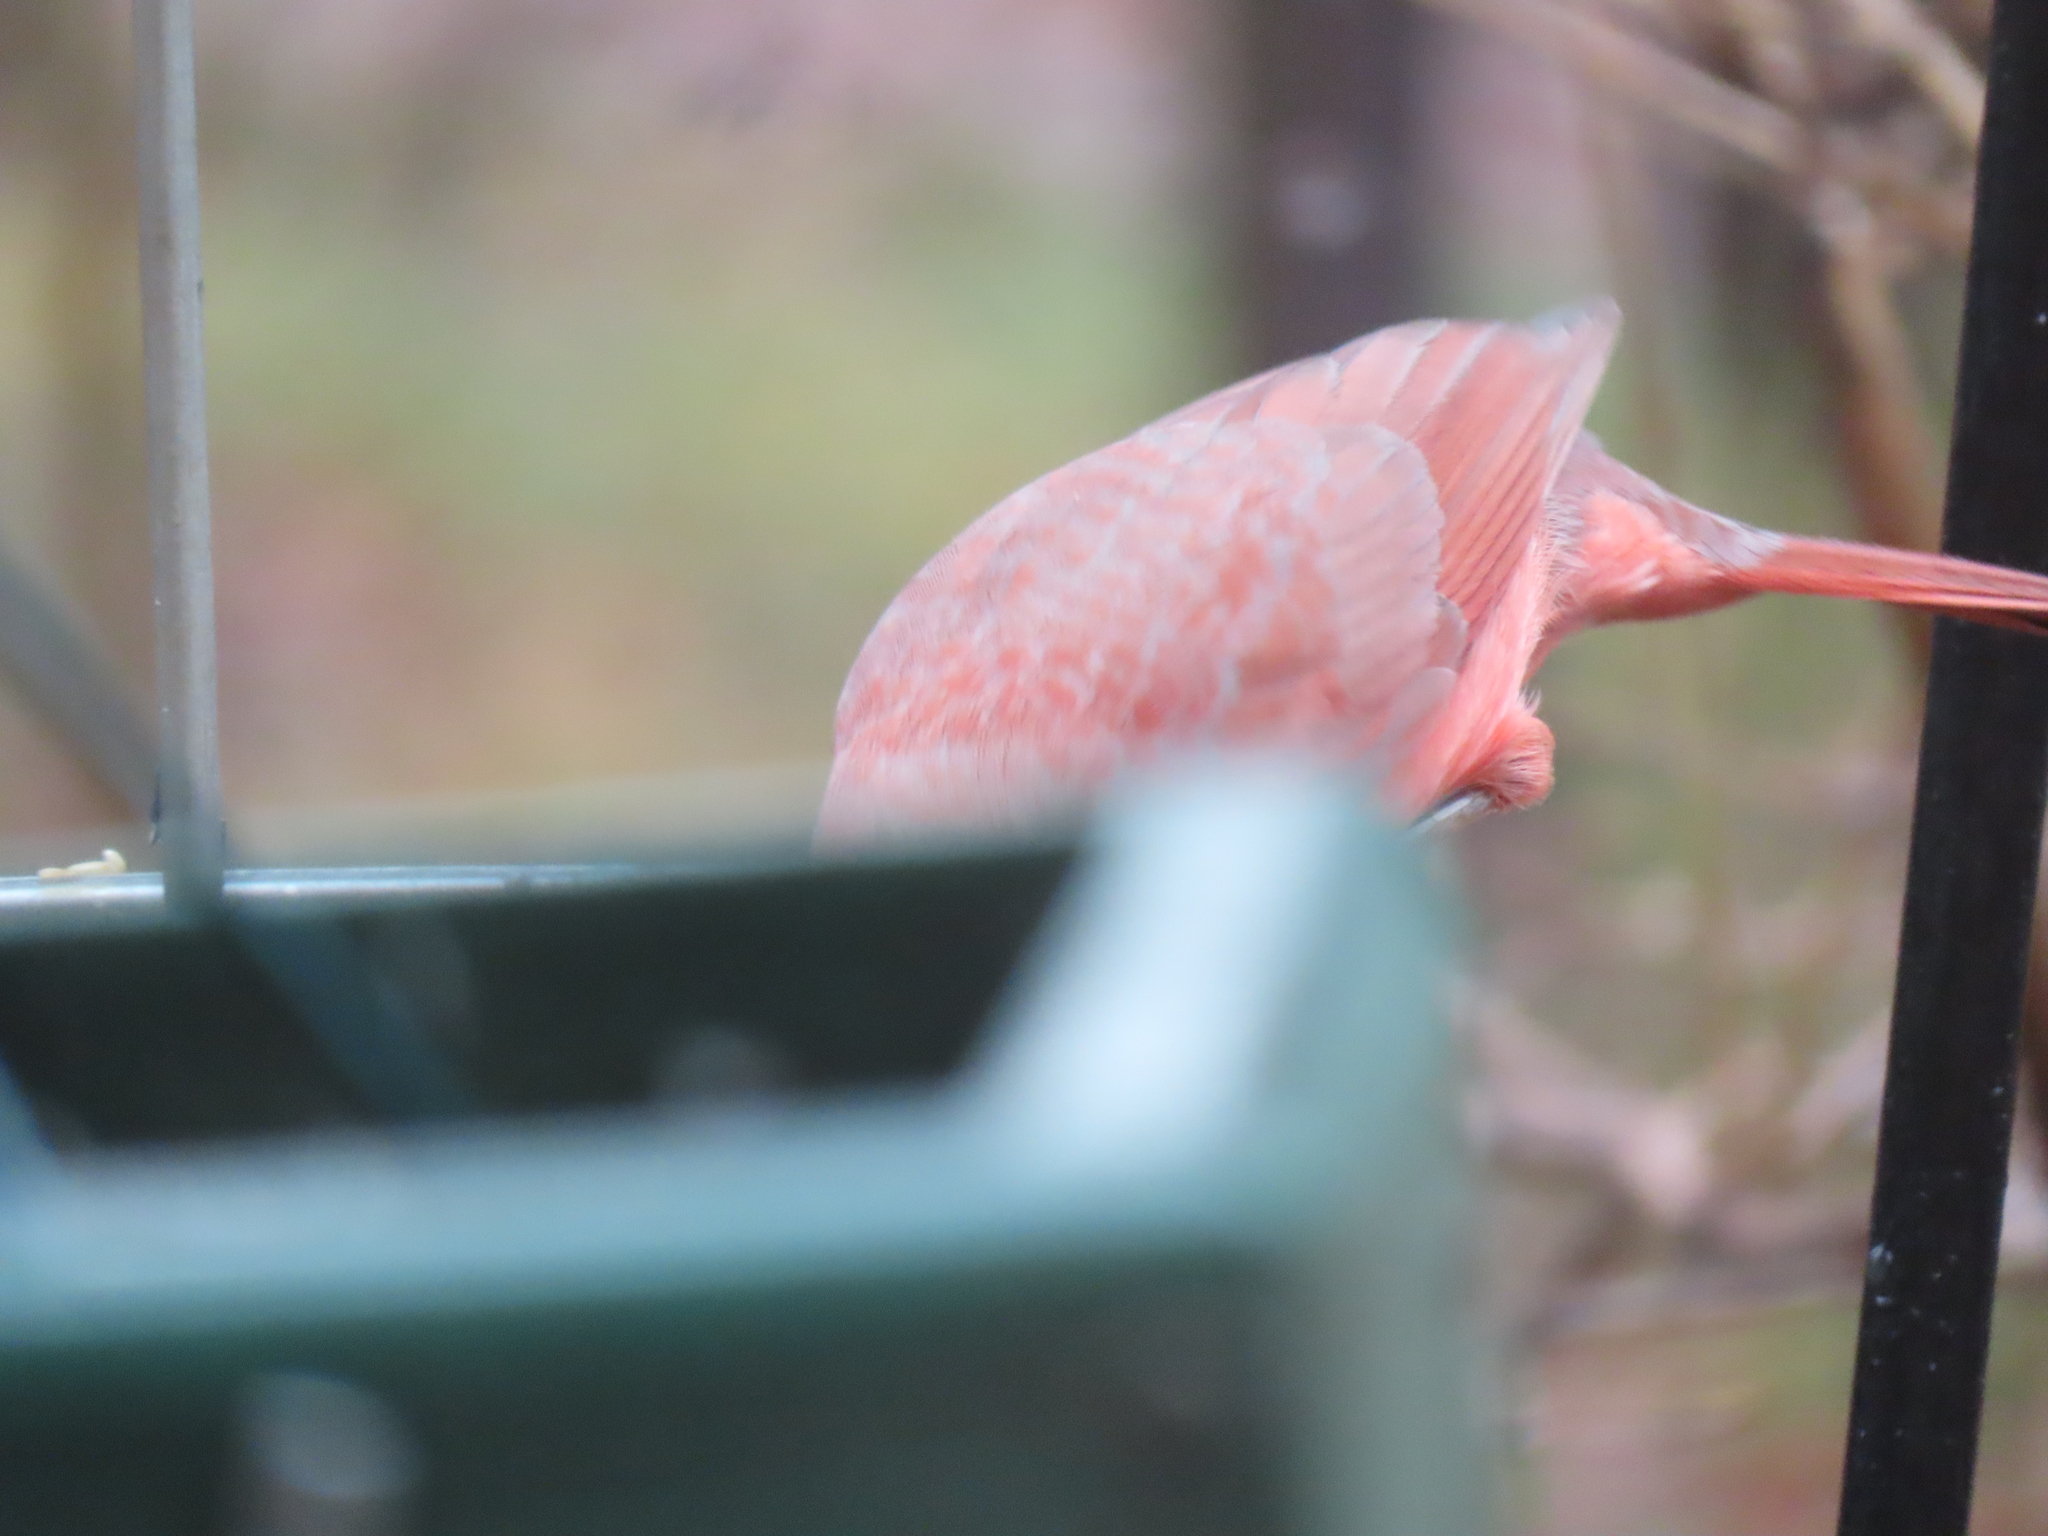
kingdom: Animalia
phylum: Chordata
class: Aves
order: Passeriformes
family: Cardinalidae
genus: Cardinalis
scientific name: Cardinalis cardinalis
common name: Northern cardinal
